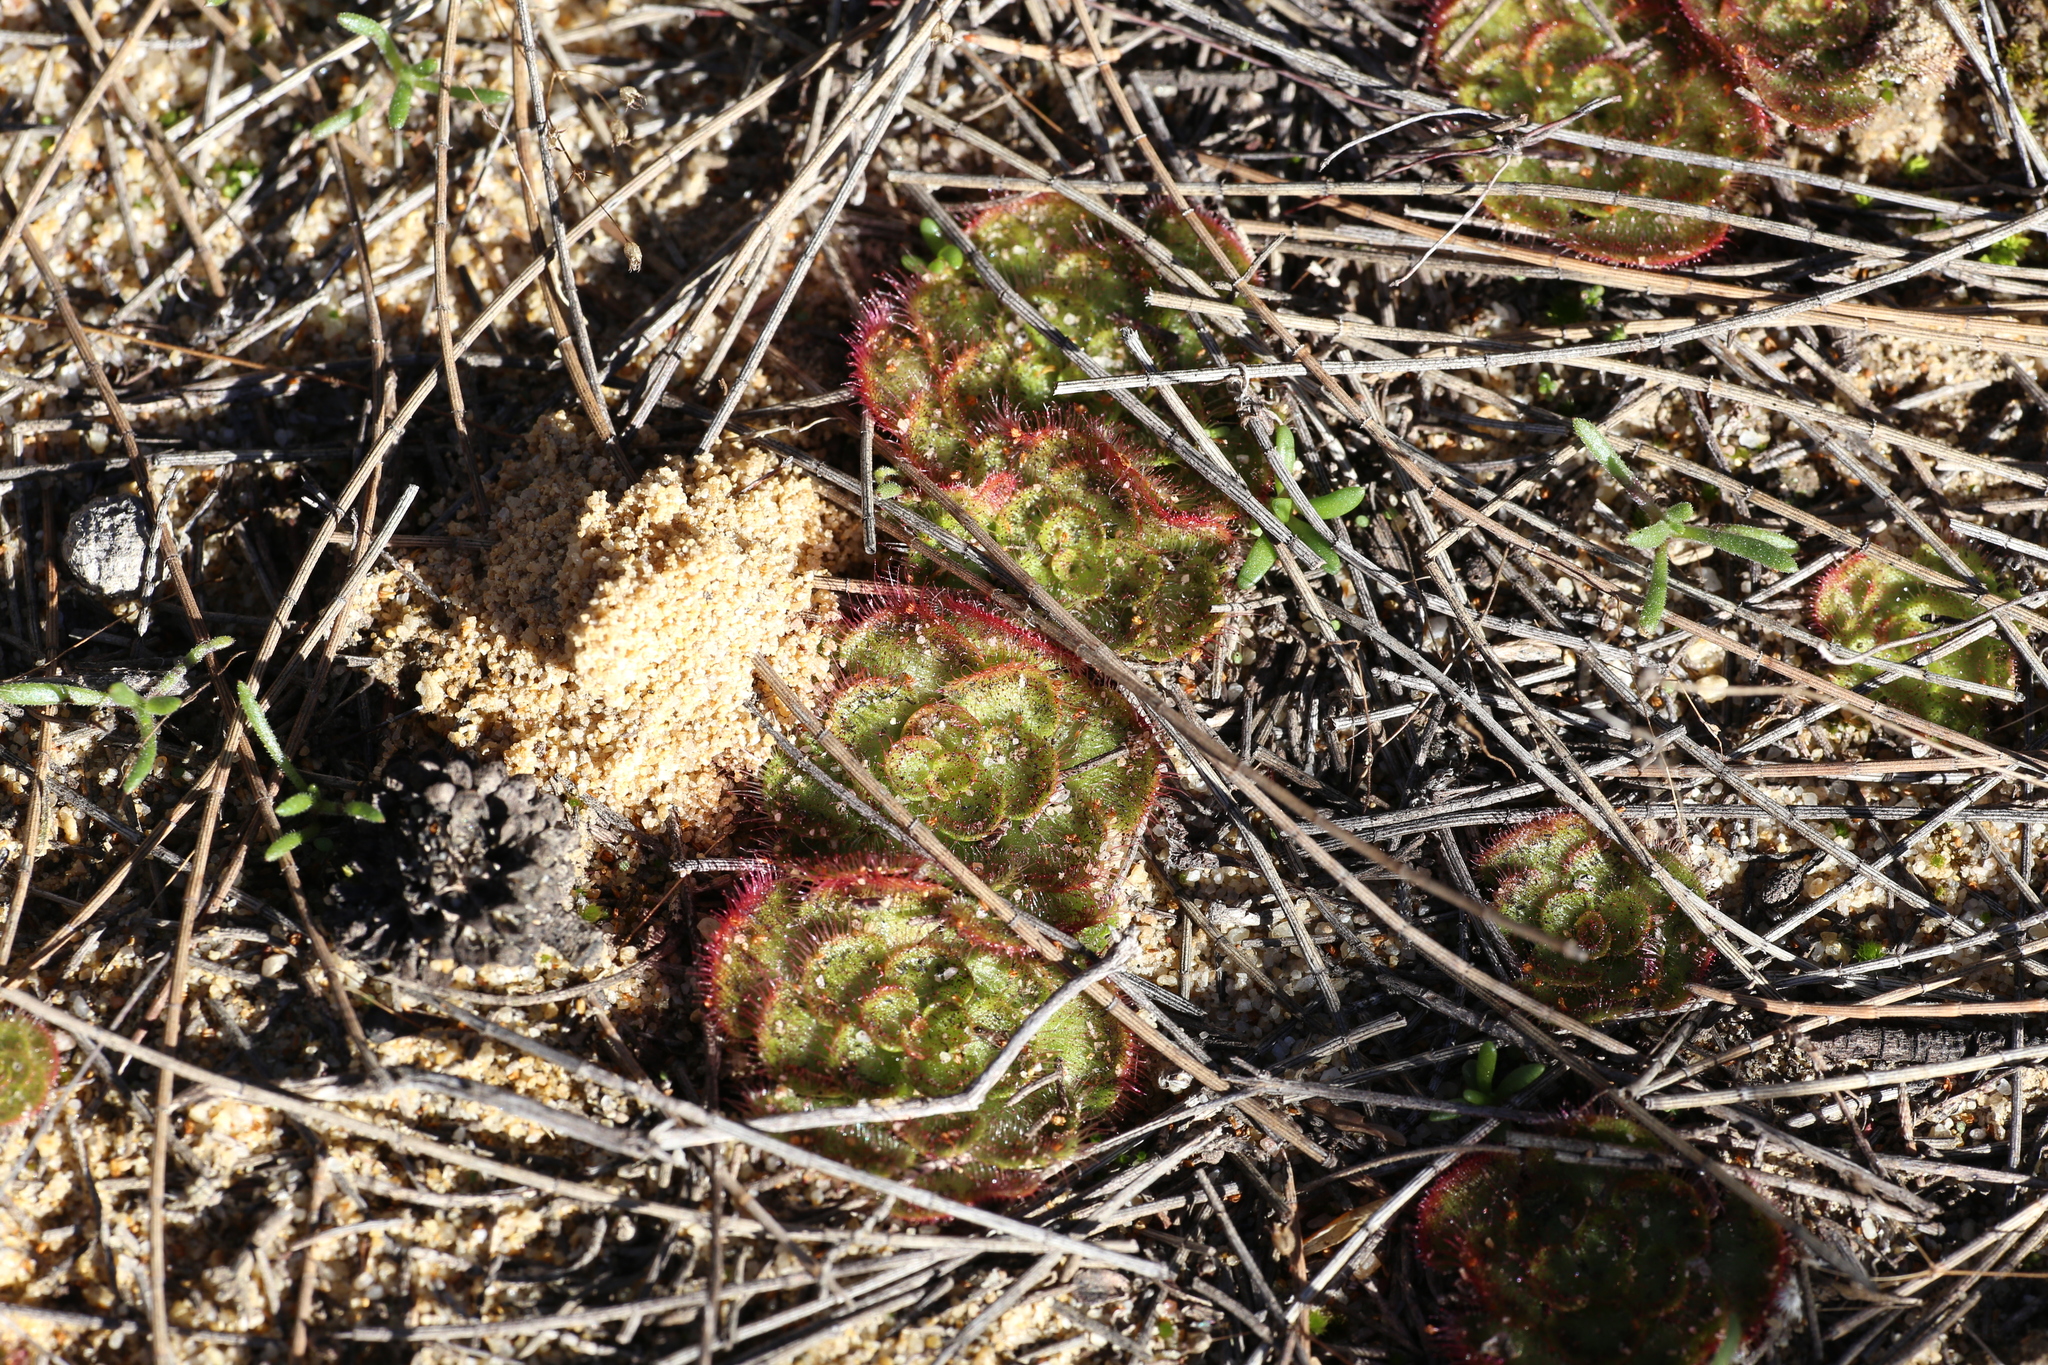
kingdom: Plantae
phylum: Tracheophyta
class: Magnoliopsida
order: Caryophyllales
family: Droseraceae
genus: Drosera
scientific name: Drosera zonaria
